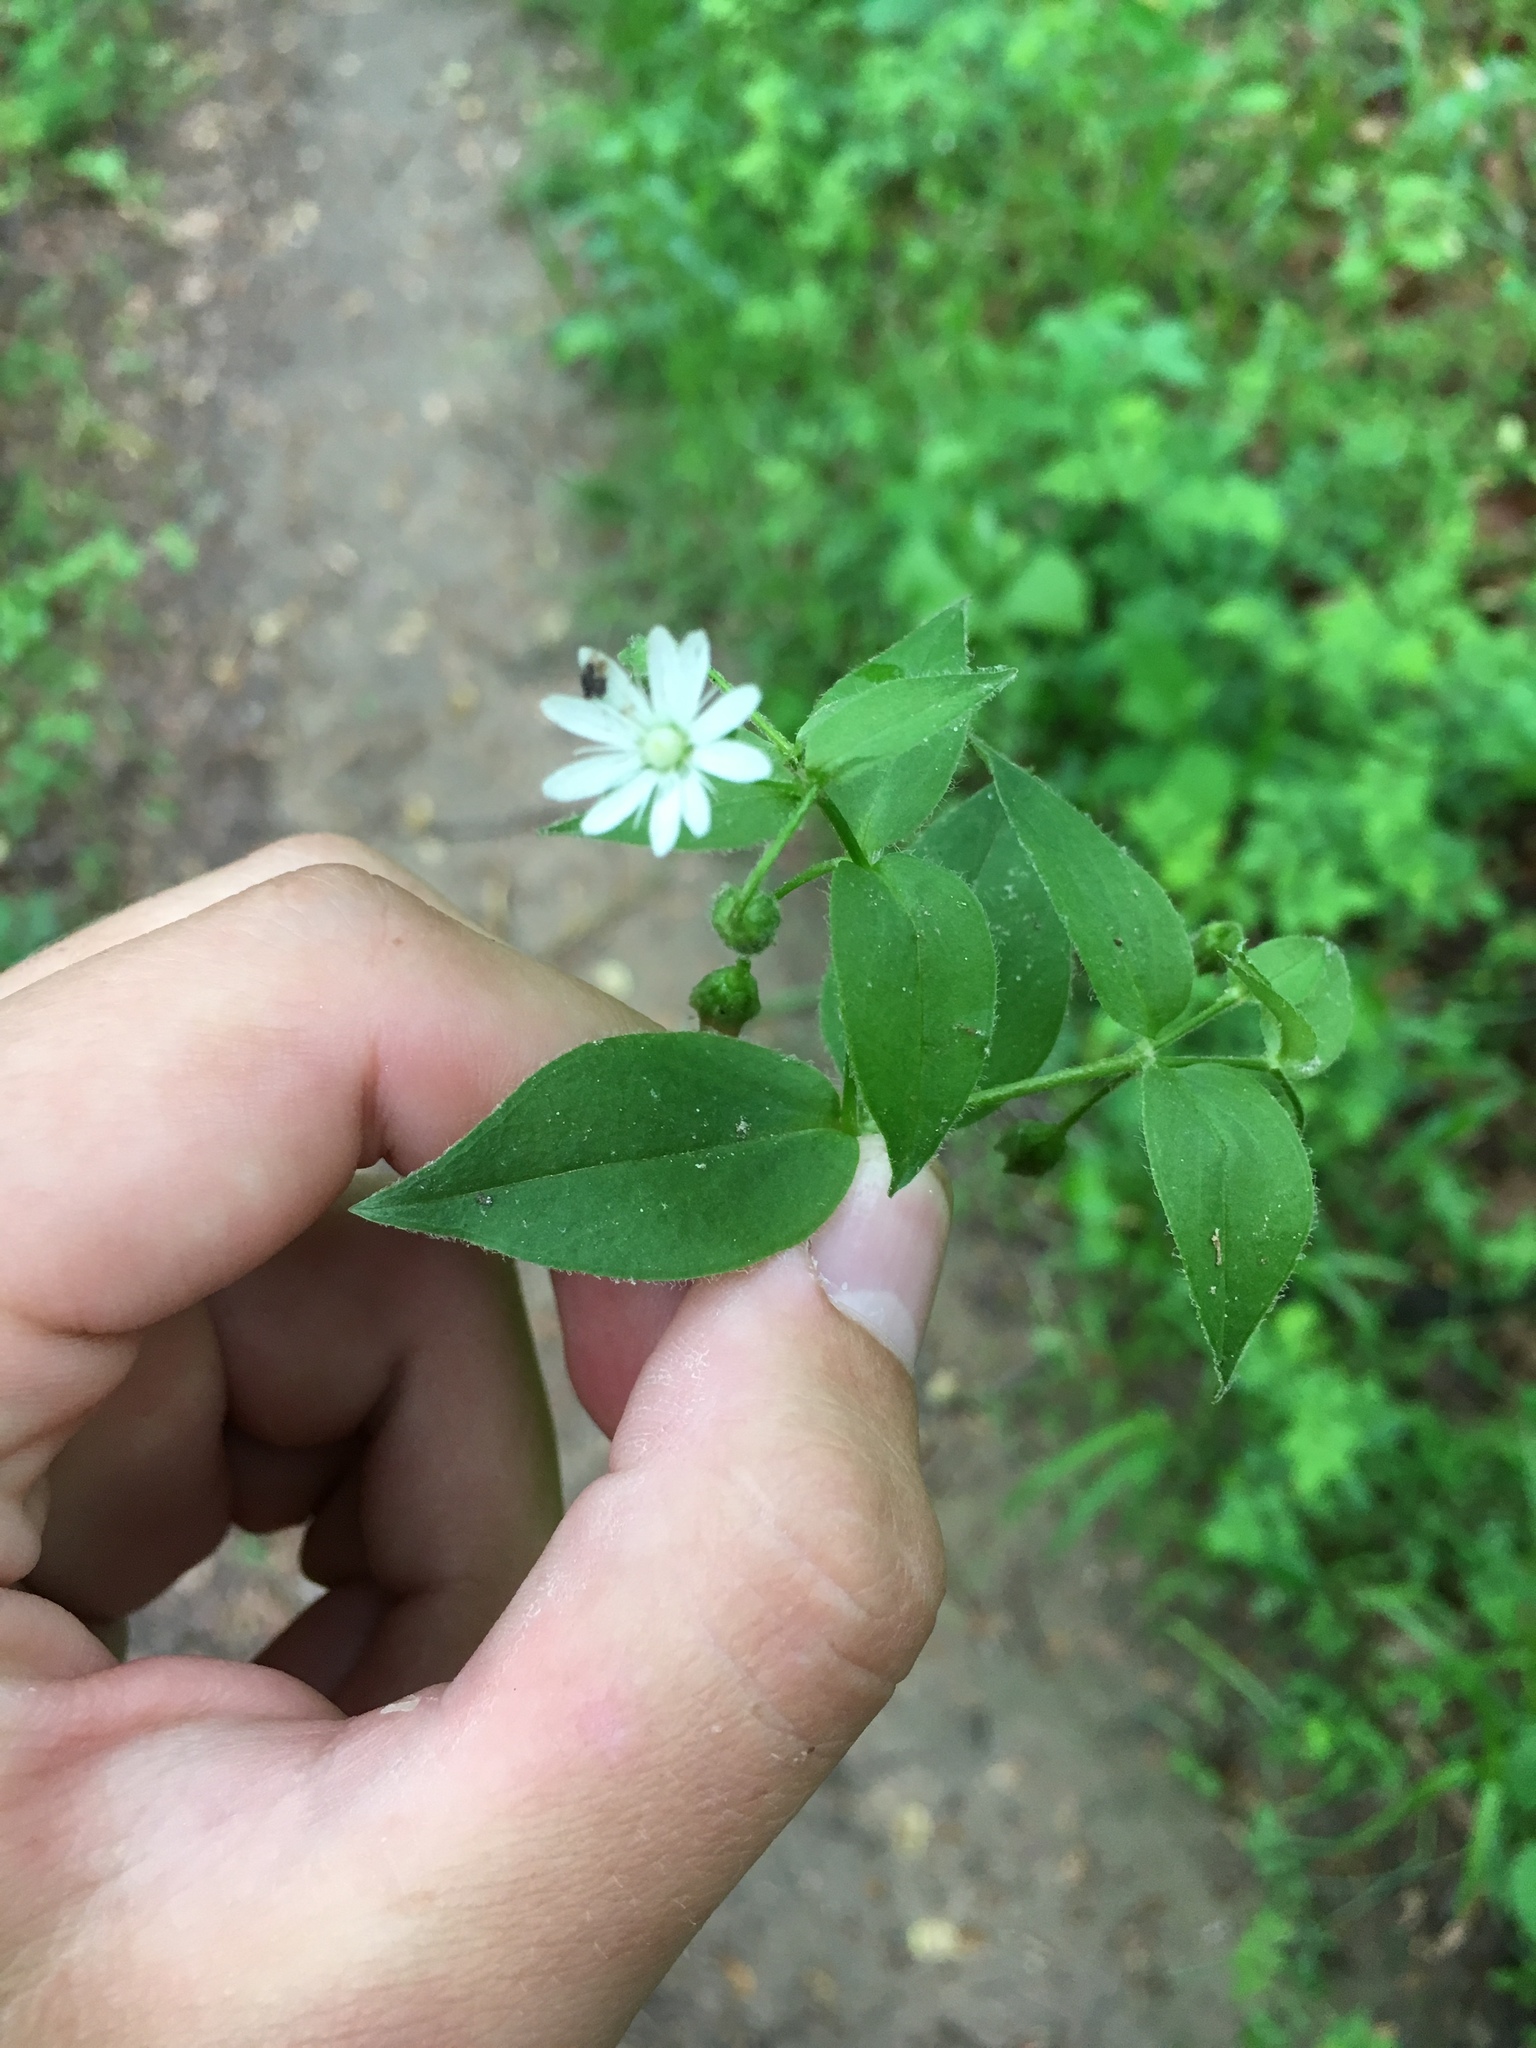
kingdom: Plantae
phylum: Tracheophyta
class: Magnoliopsida
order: Caryophyllales
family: Caryophyllaceae
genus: Stellaria
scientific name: Stellaria pubera
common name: Star chickweed
